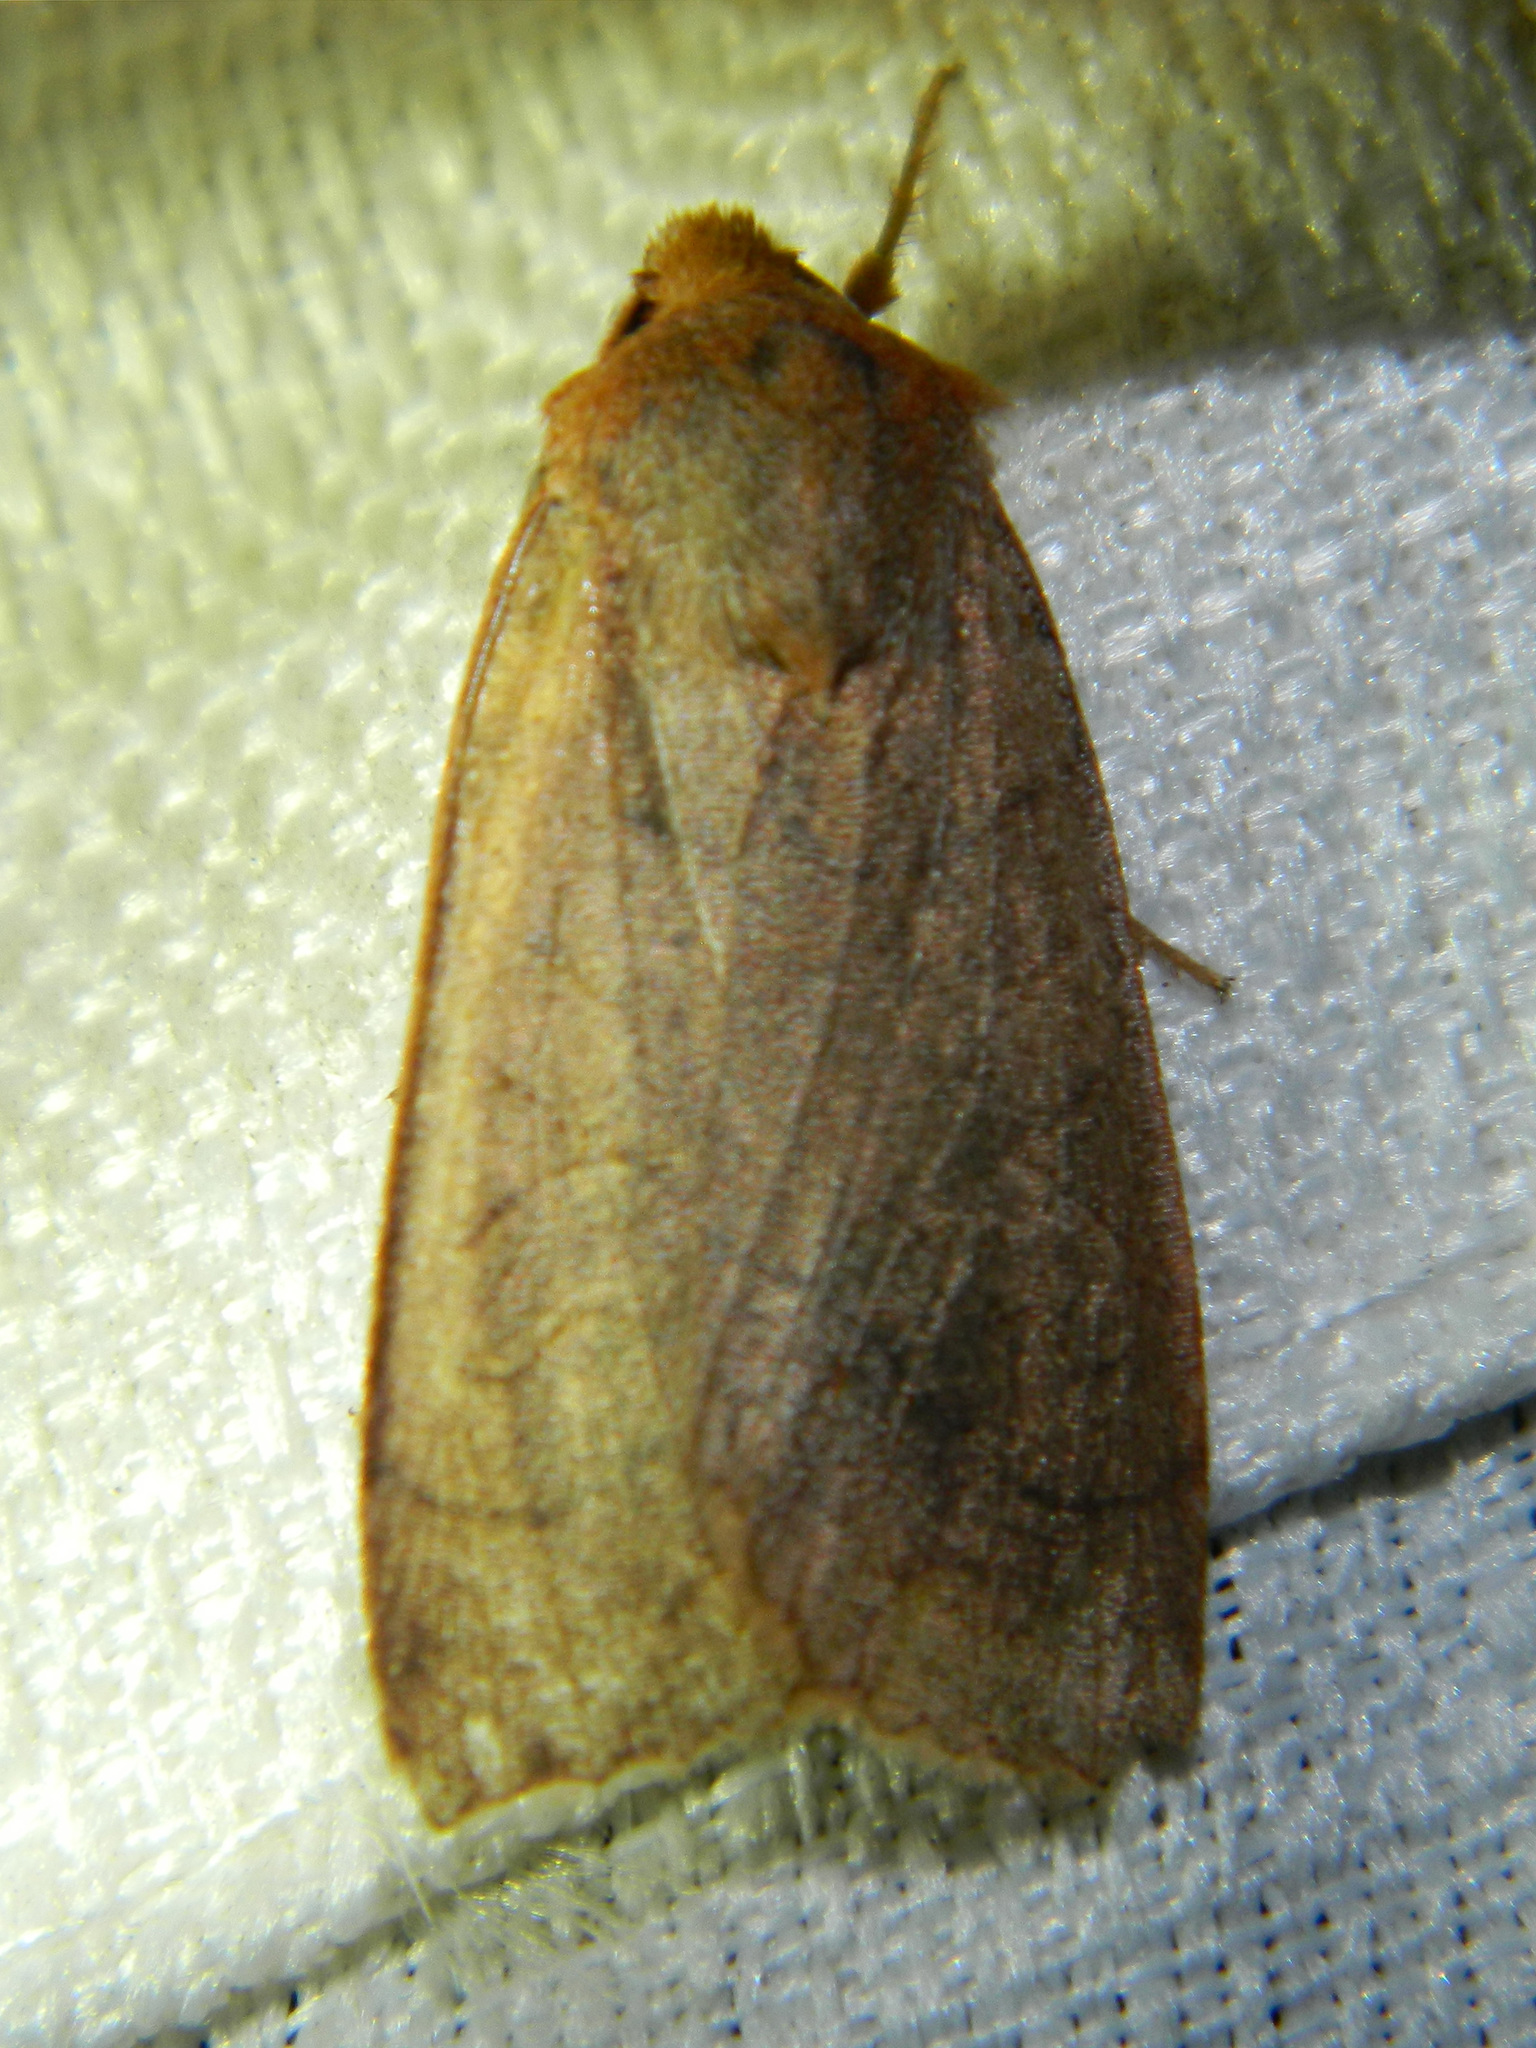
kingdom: Animalia
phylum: Arthropoda
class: Insecta
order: Lepidoptera
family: Noctuidae
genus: Metaxaglaea
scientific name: Metaxaglaea inulta
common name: Unsated sallow
